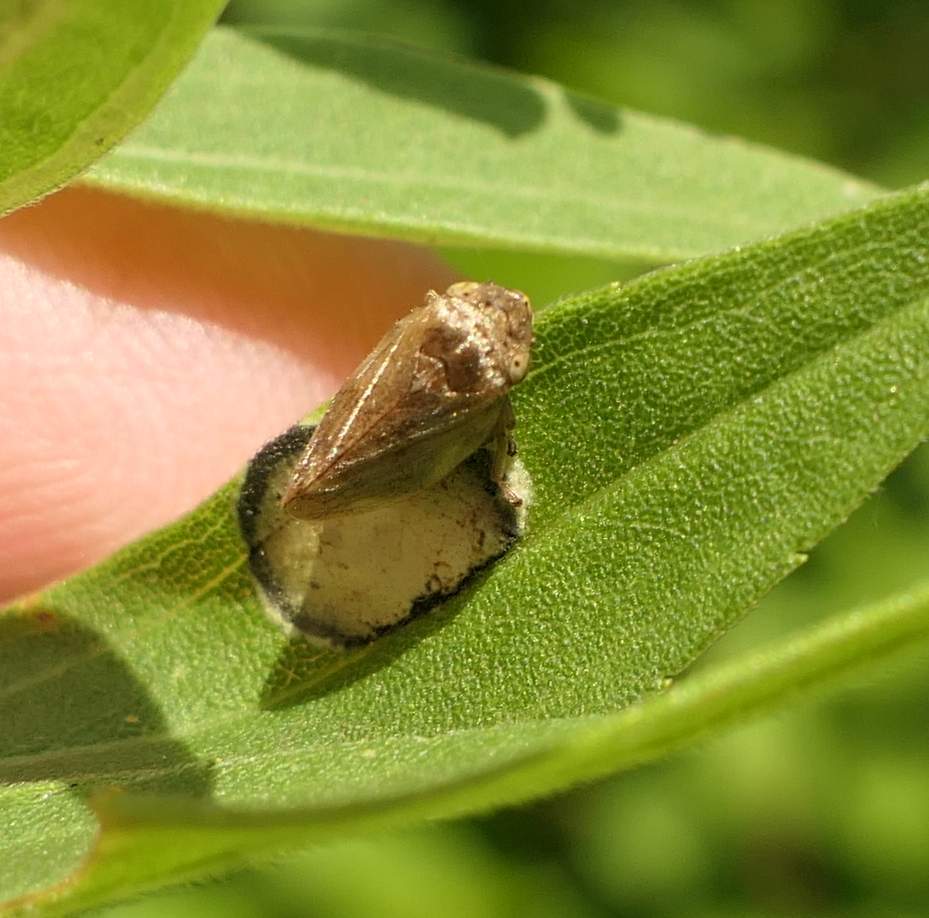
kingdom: Animalia
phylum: Arthropoda
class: Insecta
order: Hemiptera
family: Aphrophoridae
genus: Philaenus
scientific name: Philaenus spumarius
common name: Meadow spittlebug
